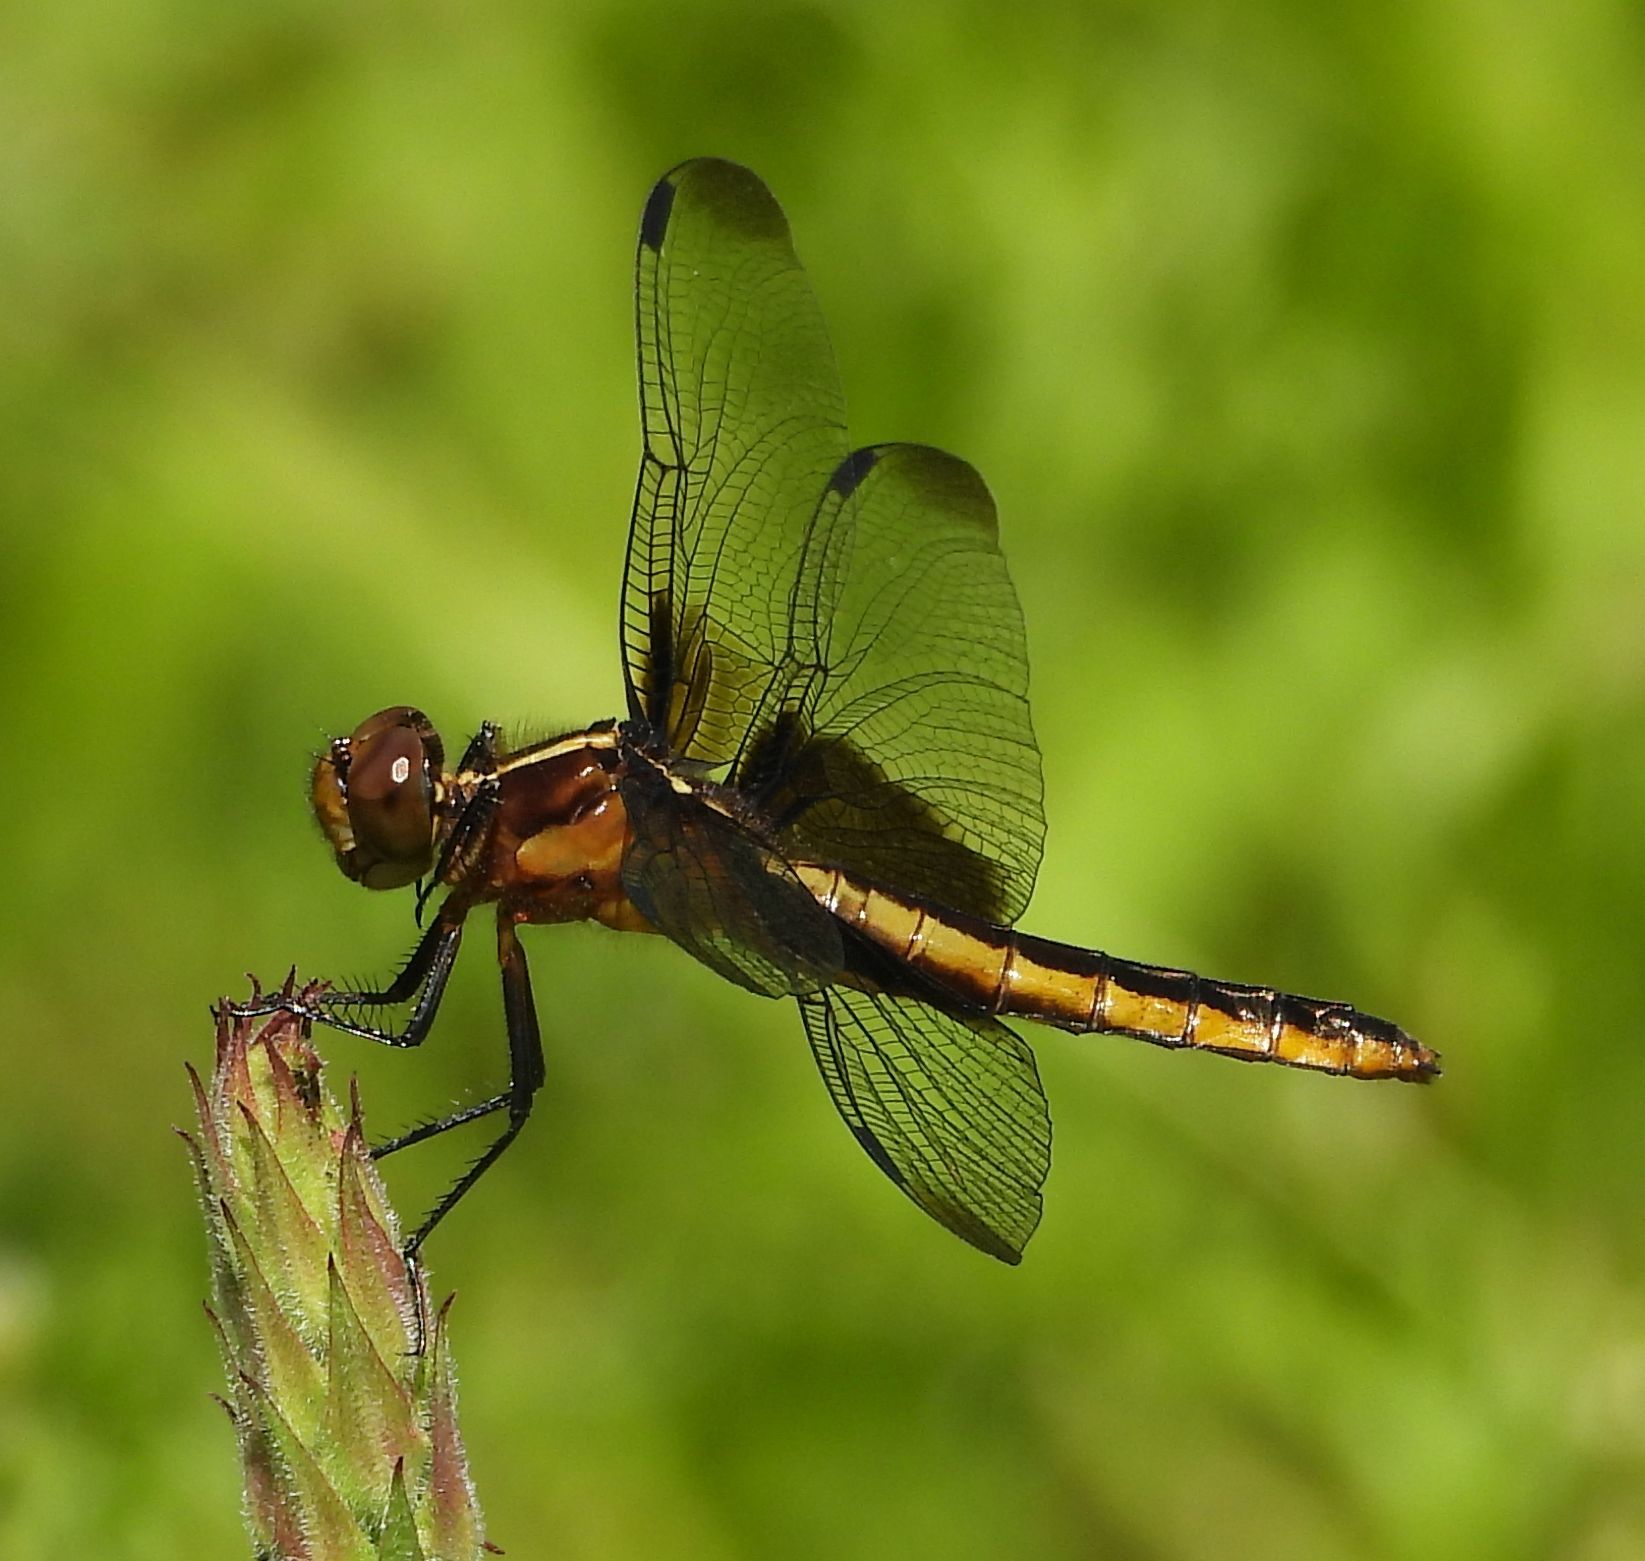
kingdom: Animalia
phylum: Arthropoda
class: Insecta
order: Odonata
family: Libellulidae
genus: Libellula
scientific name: Libellula luctuosa
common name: Widow skimmer
